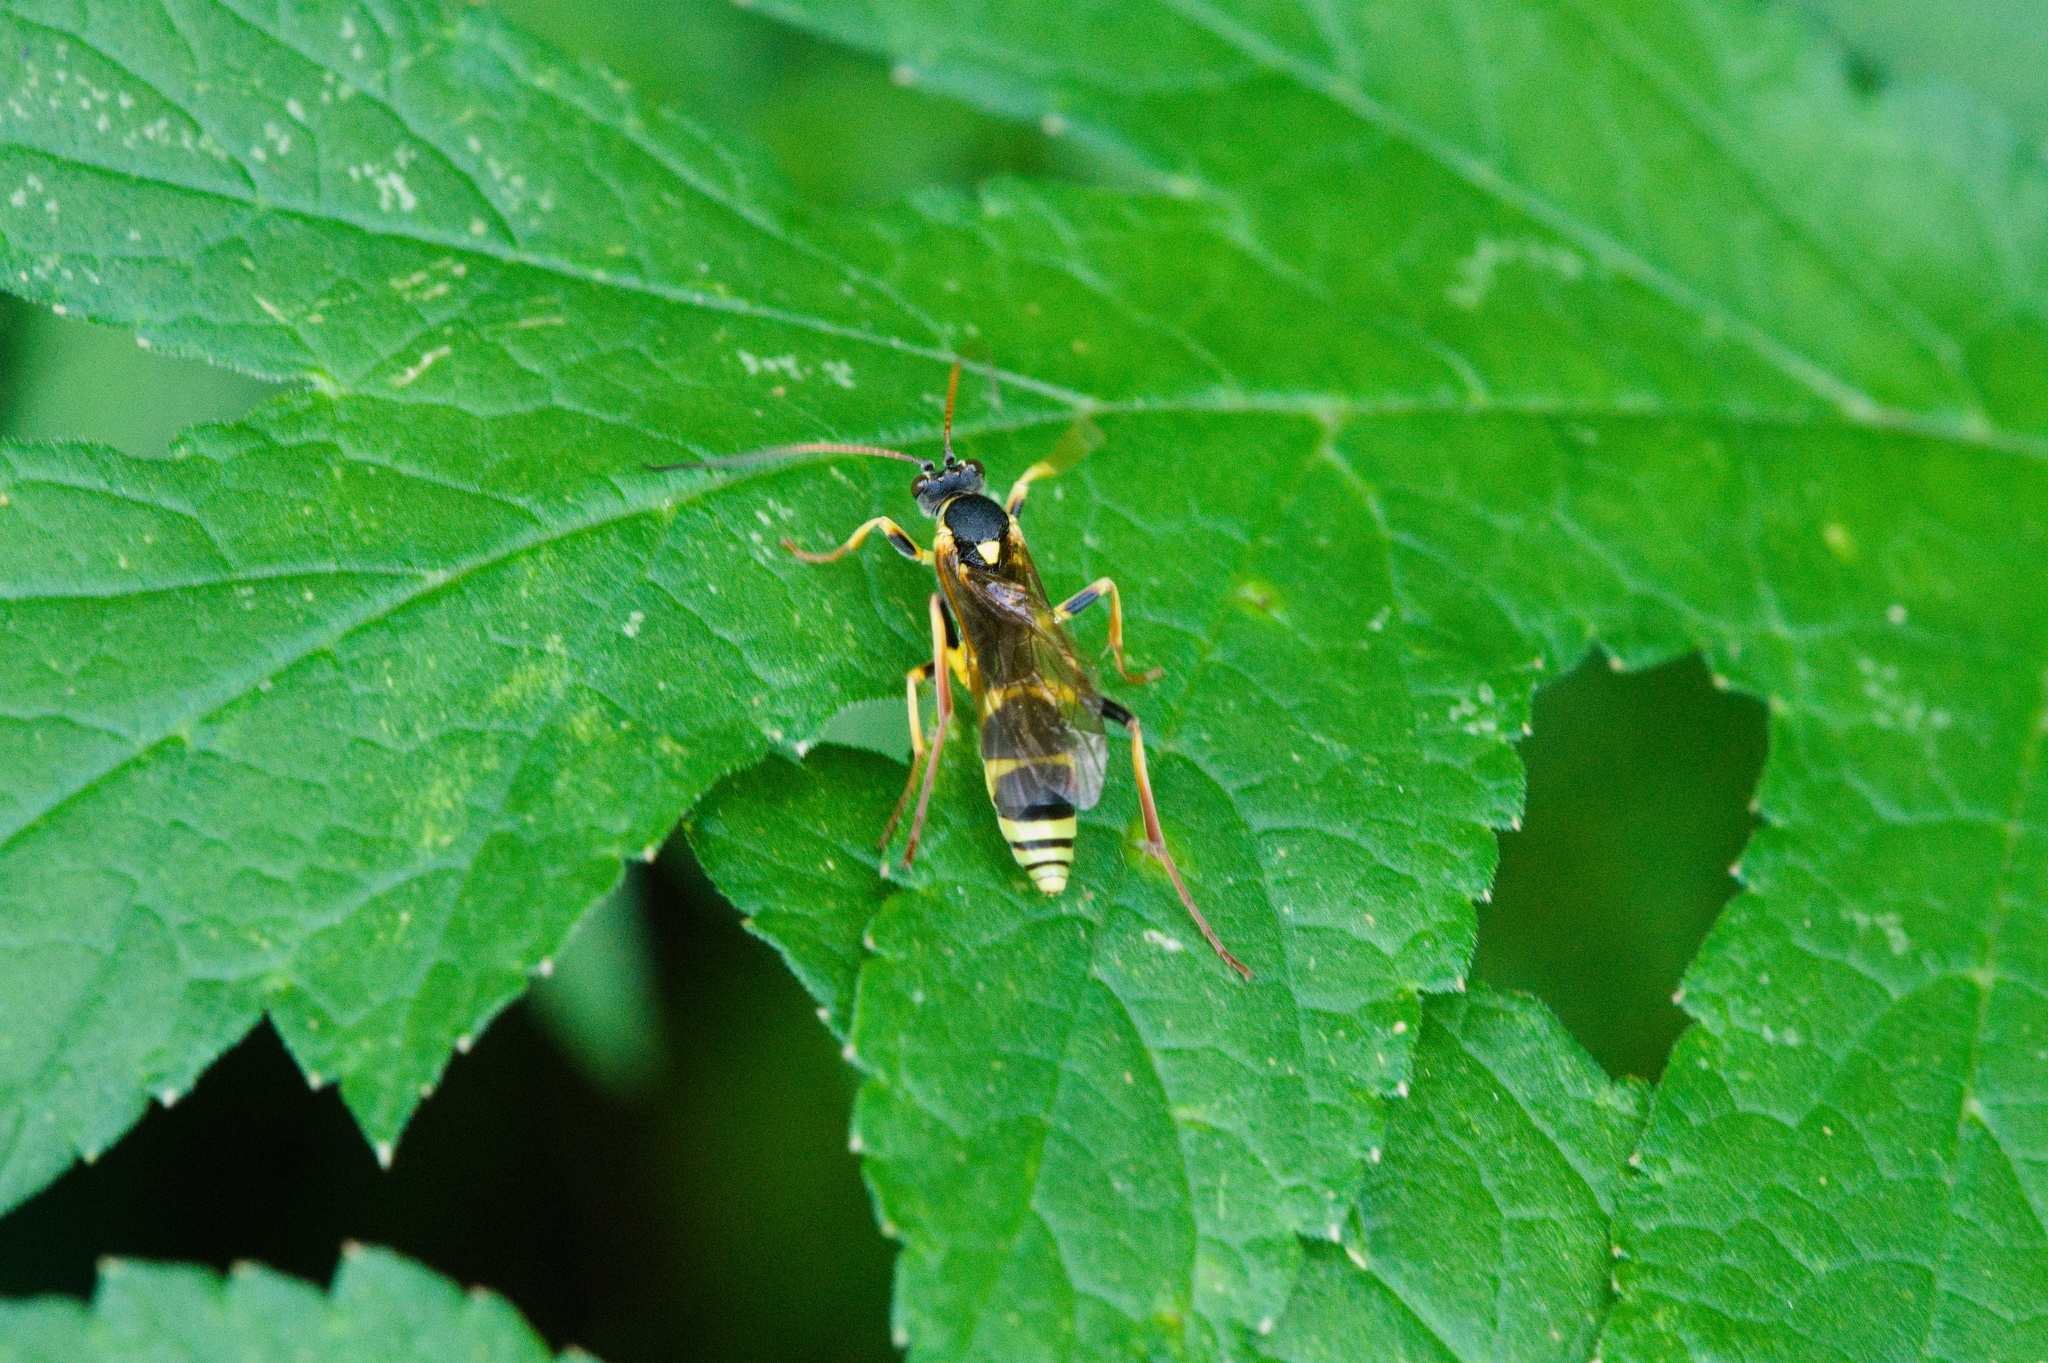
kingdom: Animalia
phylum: Arthropoda
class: Insecta
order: Hymenoptera
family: Ichneumonidae
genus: Amblyteles
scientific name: Amblyteles armatorius
